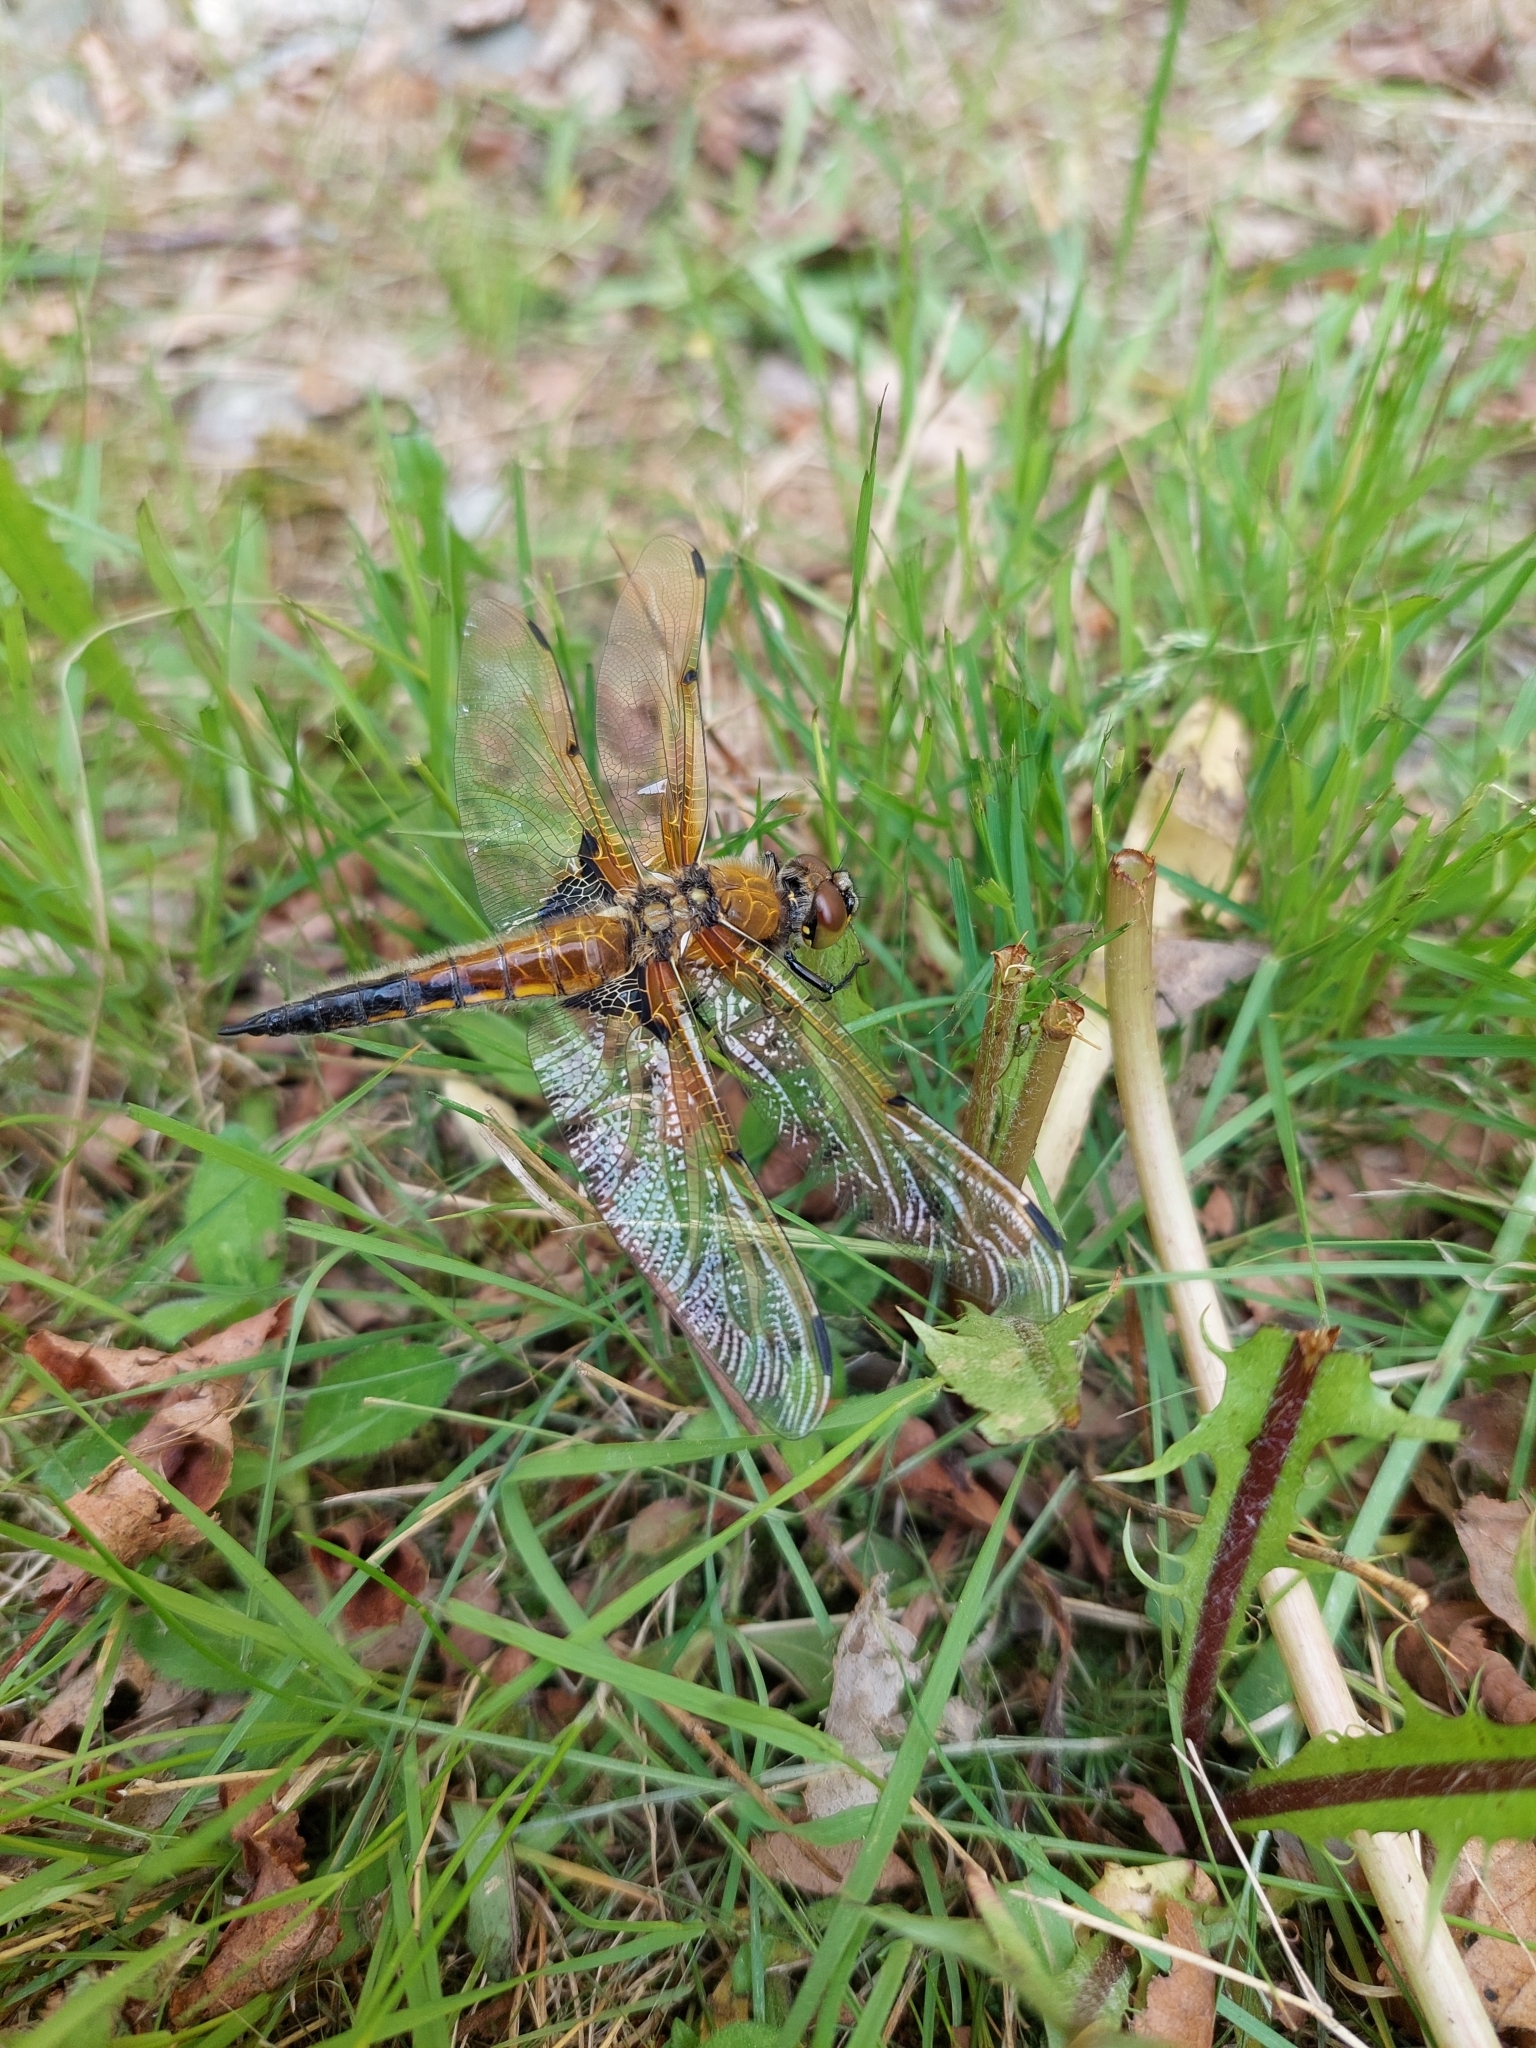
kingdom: Animalia
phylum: Arthropoda
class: Insecta
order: Odonata
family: Libellulidae
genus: Libellula
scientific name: Libellula quadrimaculata
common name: Four-spotted chaser
